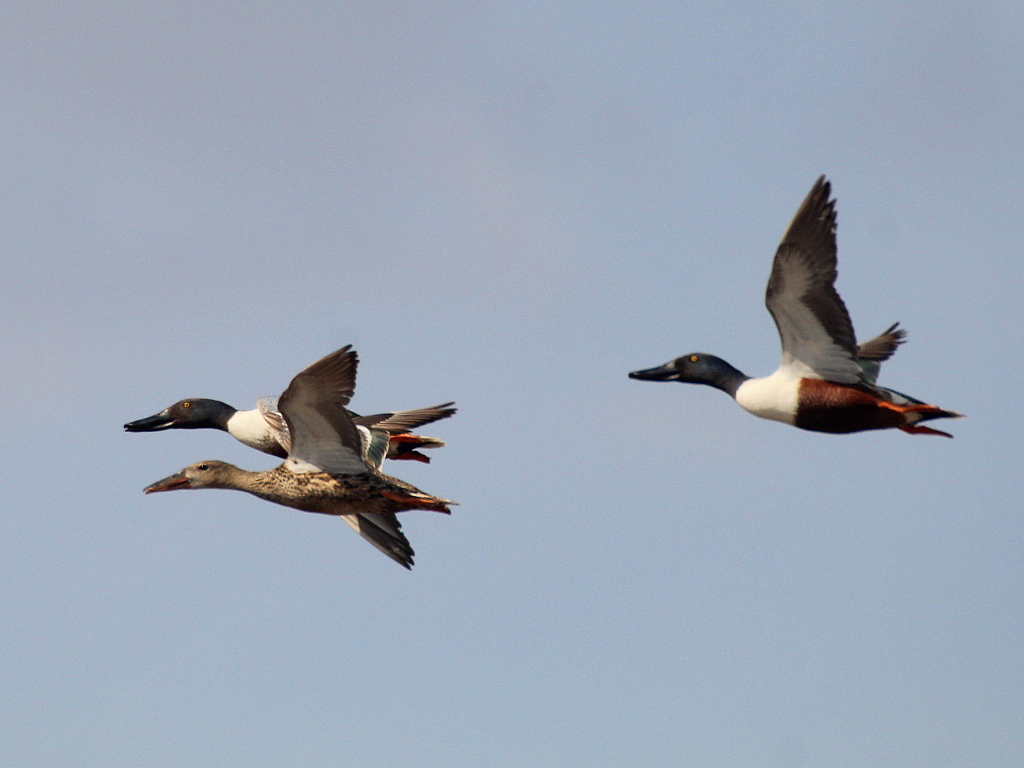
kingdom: Animalia
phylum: Chordata
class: Aves
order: Anseriformes
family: Anatidae
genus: Spatula
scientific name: Spatula clypeata
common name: Northern shoveler
